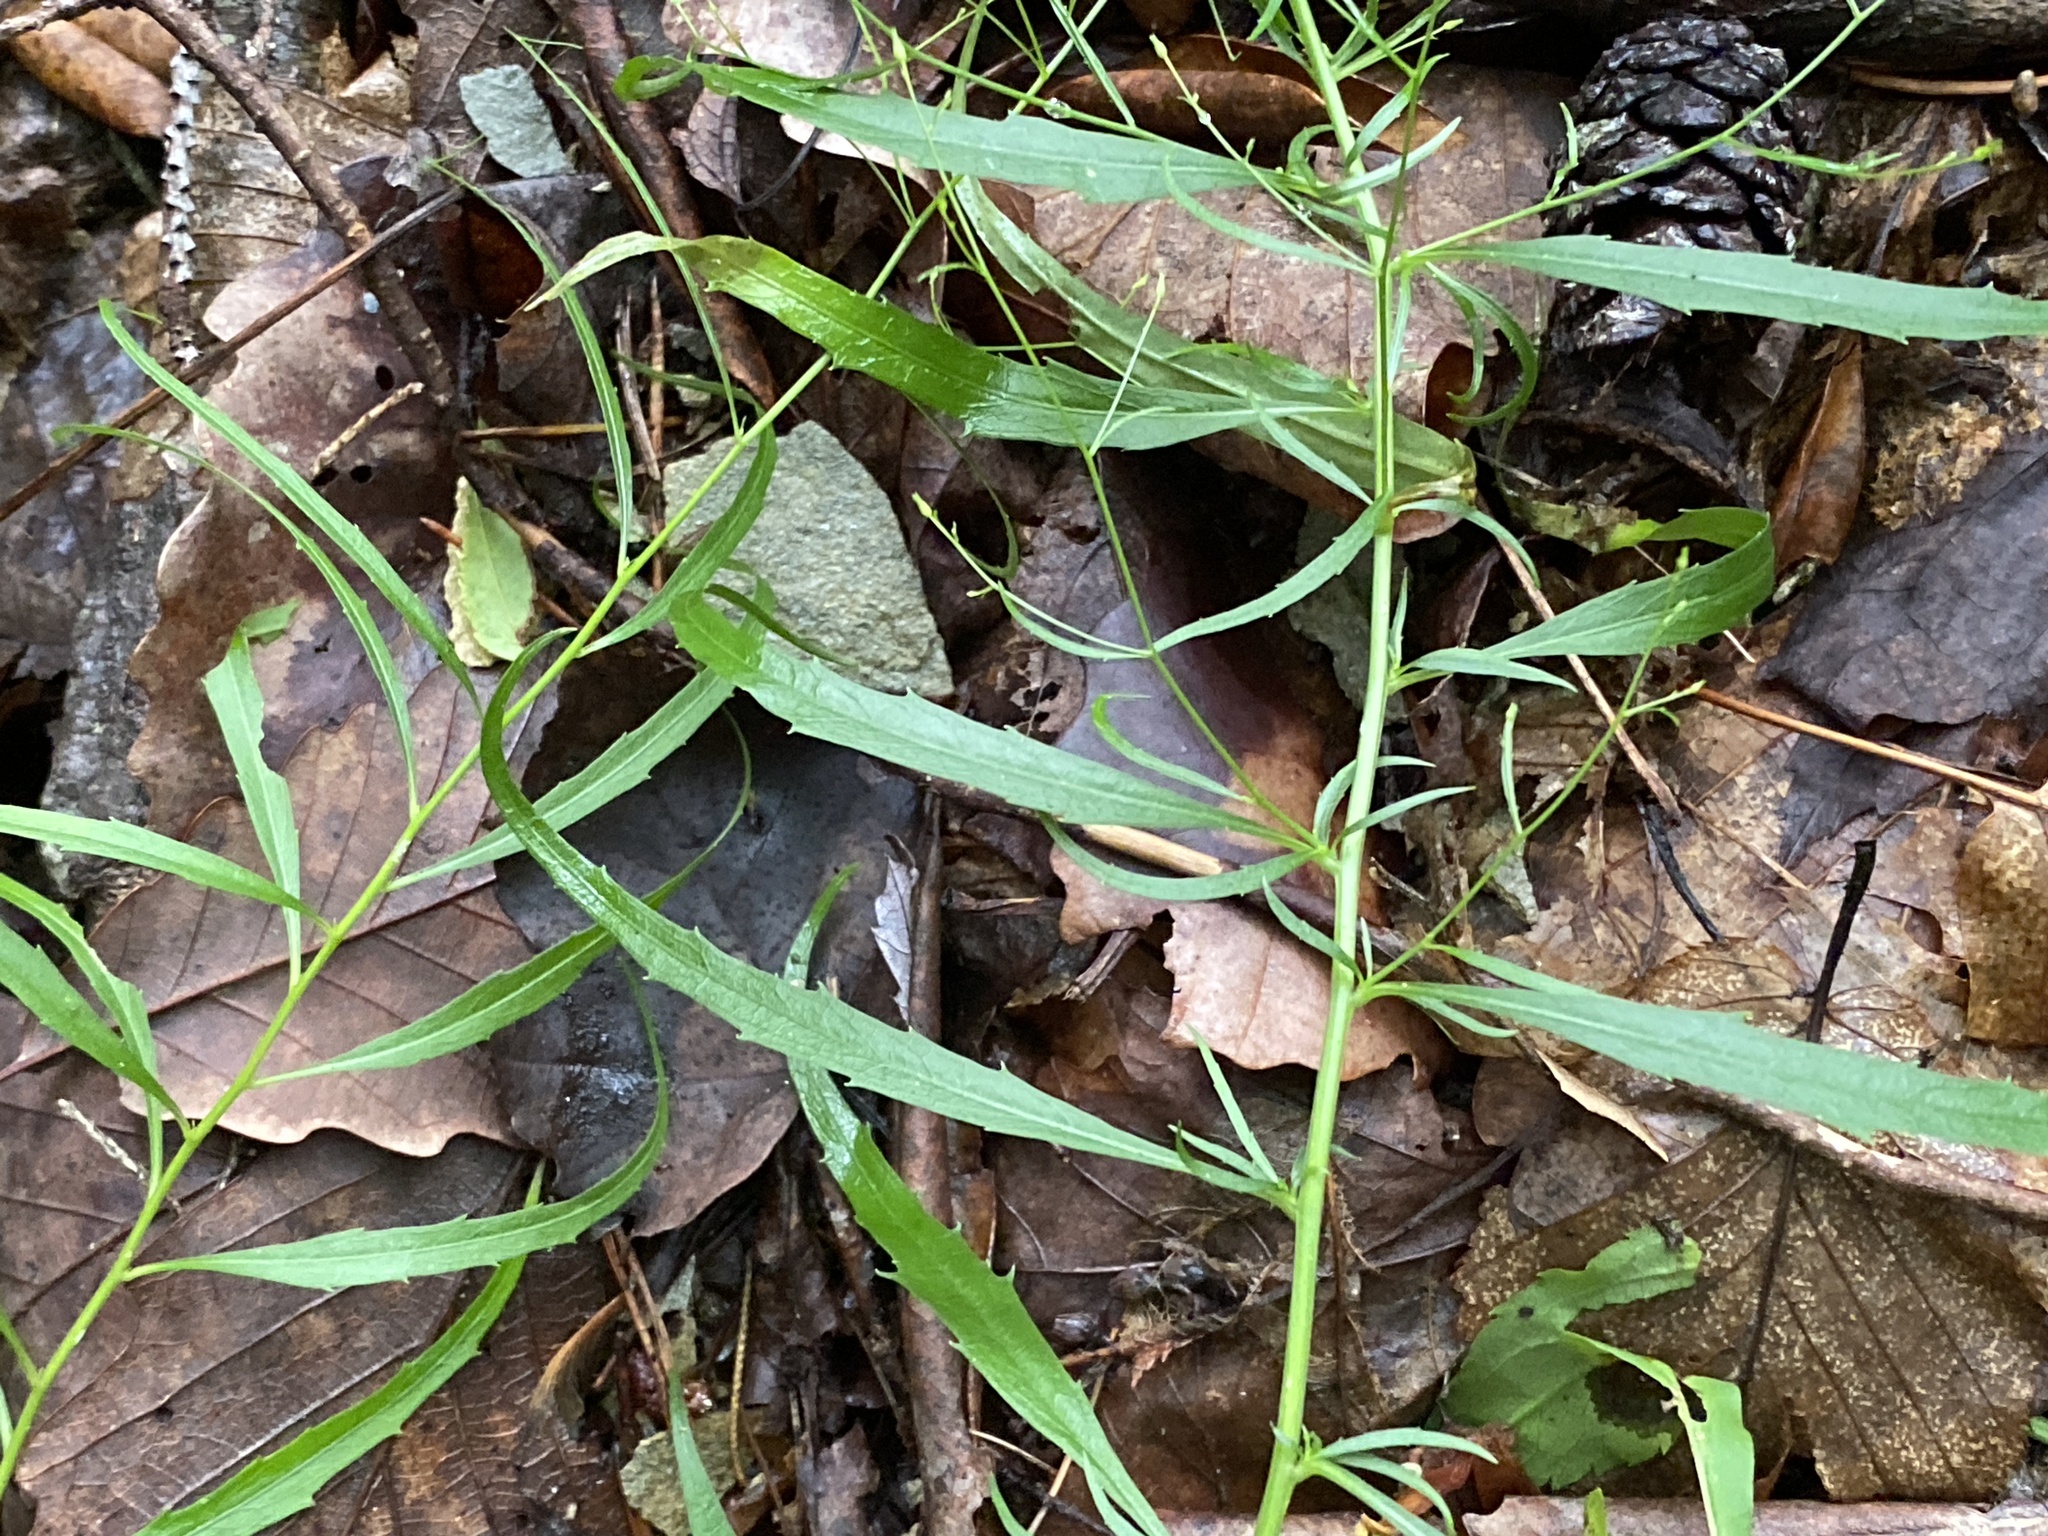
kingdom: Plantae
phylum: Tracheophyta
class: Magnoliopsida
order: Asterales
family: Campanulaceae
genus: Campanula
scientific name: Campanula divaricata
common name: Appalachian bellflower
